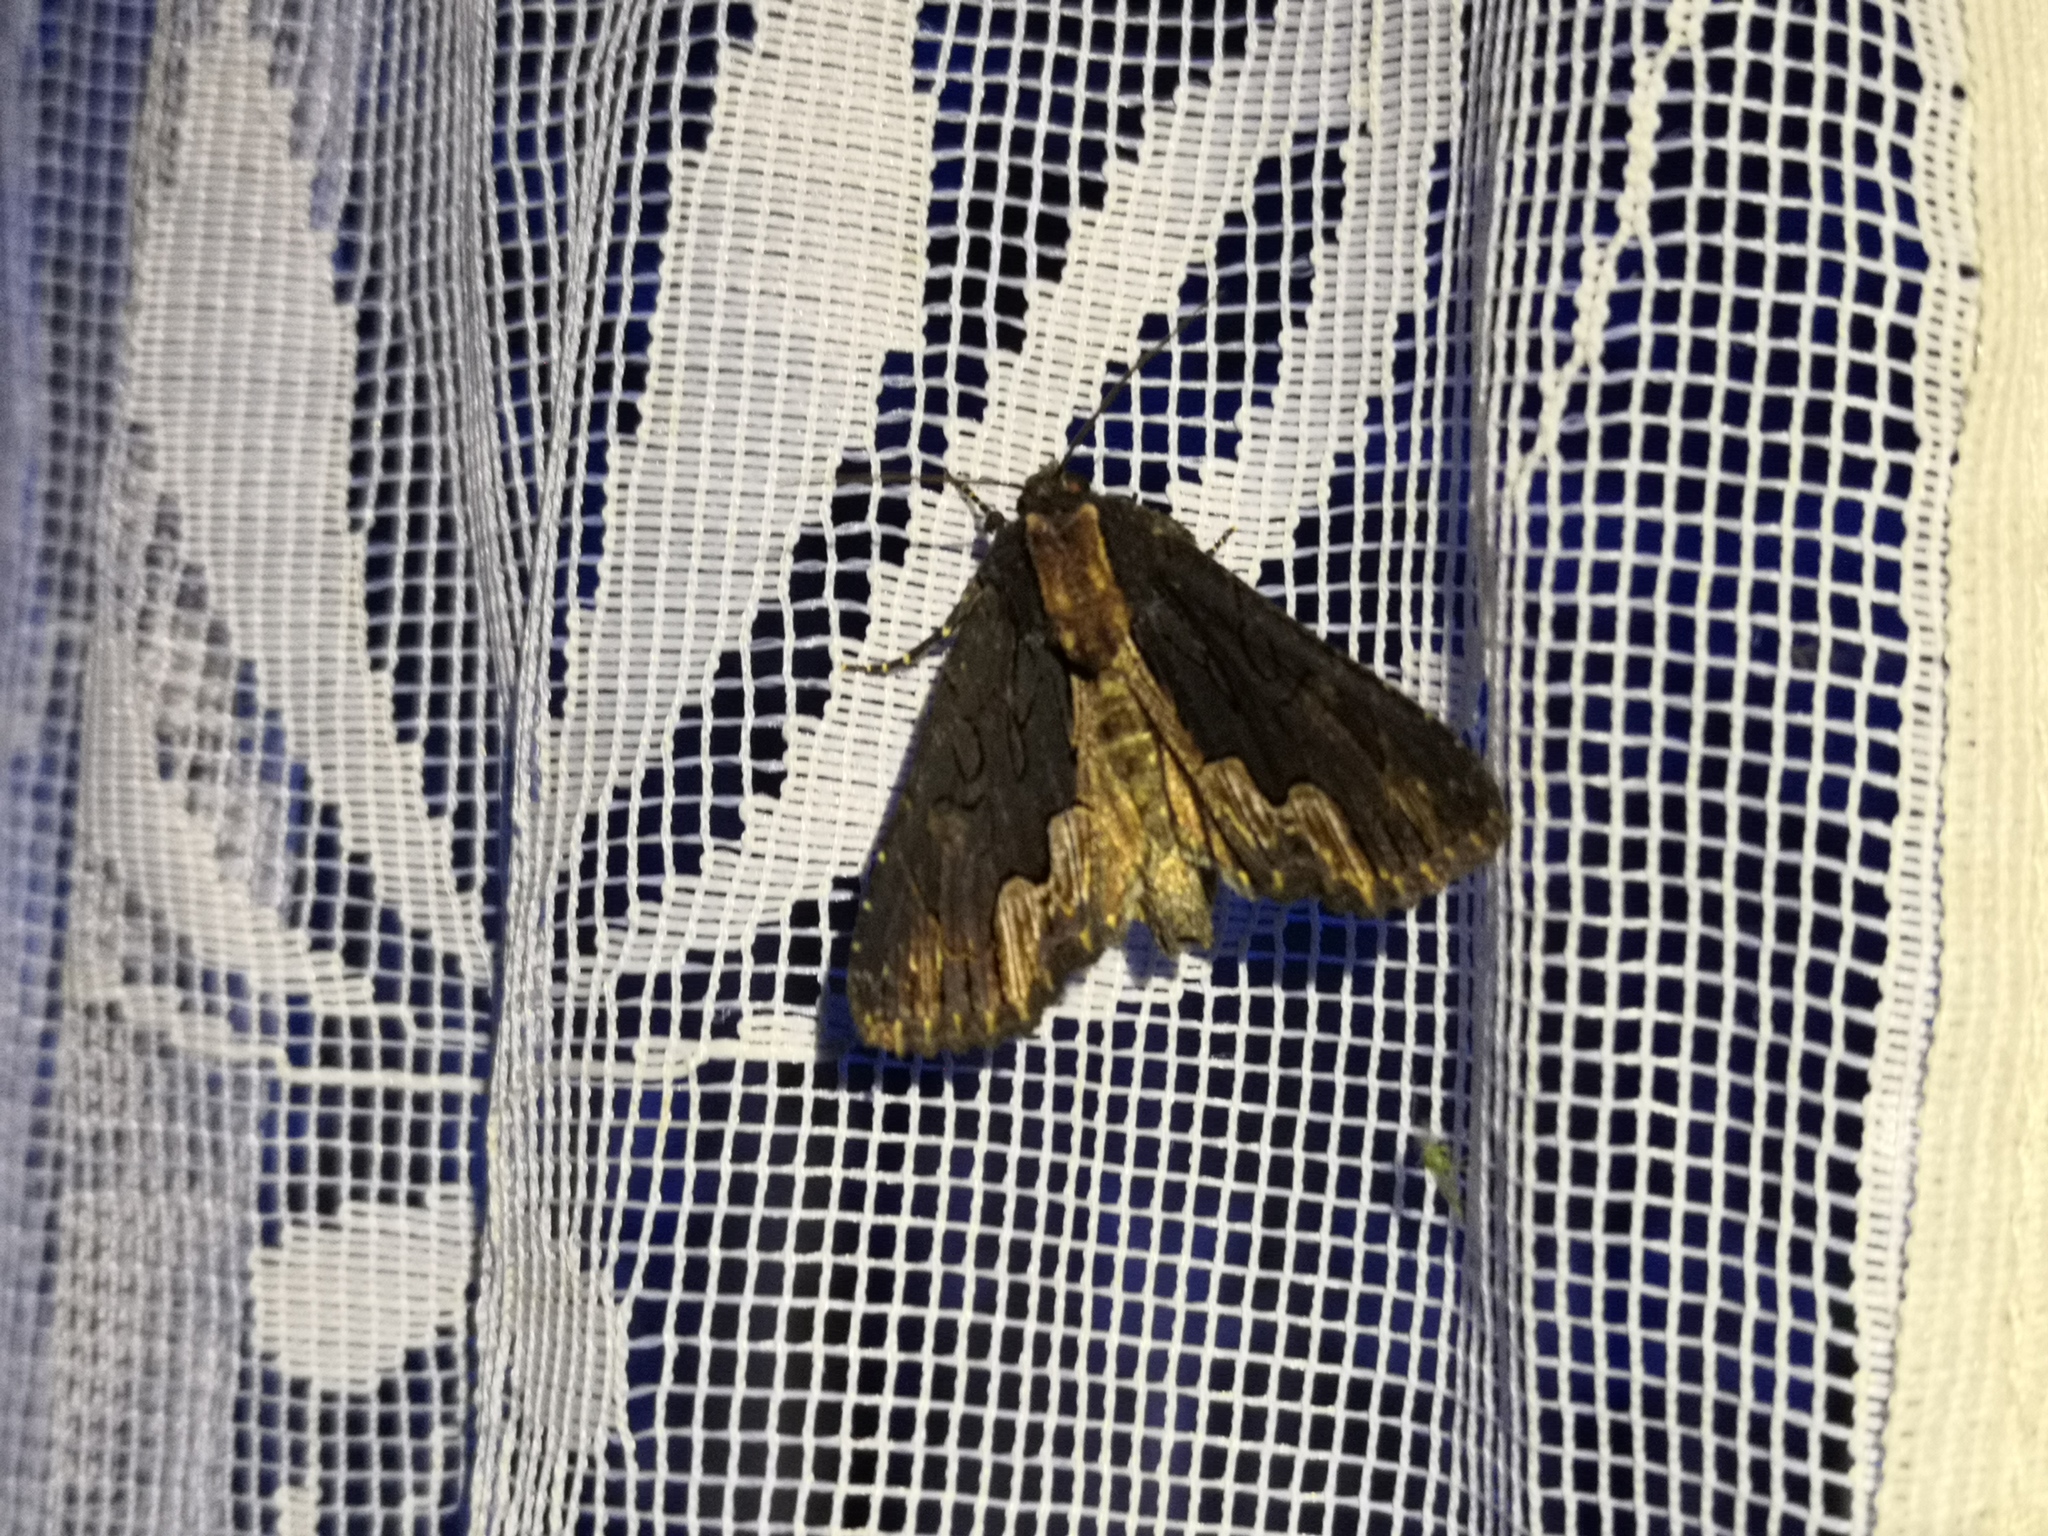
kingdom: Animalia
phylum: Arthropoda
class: Insecta
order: Lepidoptera
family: Noctuidae
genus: Dypterygia
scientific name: Dypterygia scabriuscula
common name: Bird's wing
